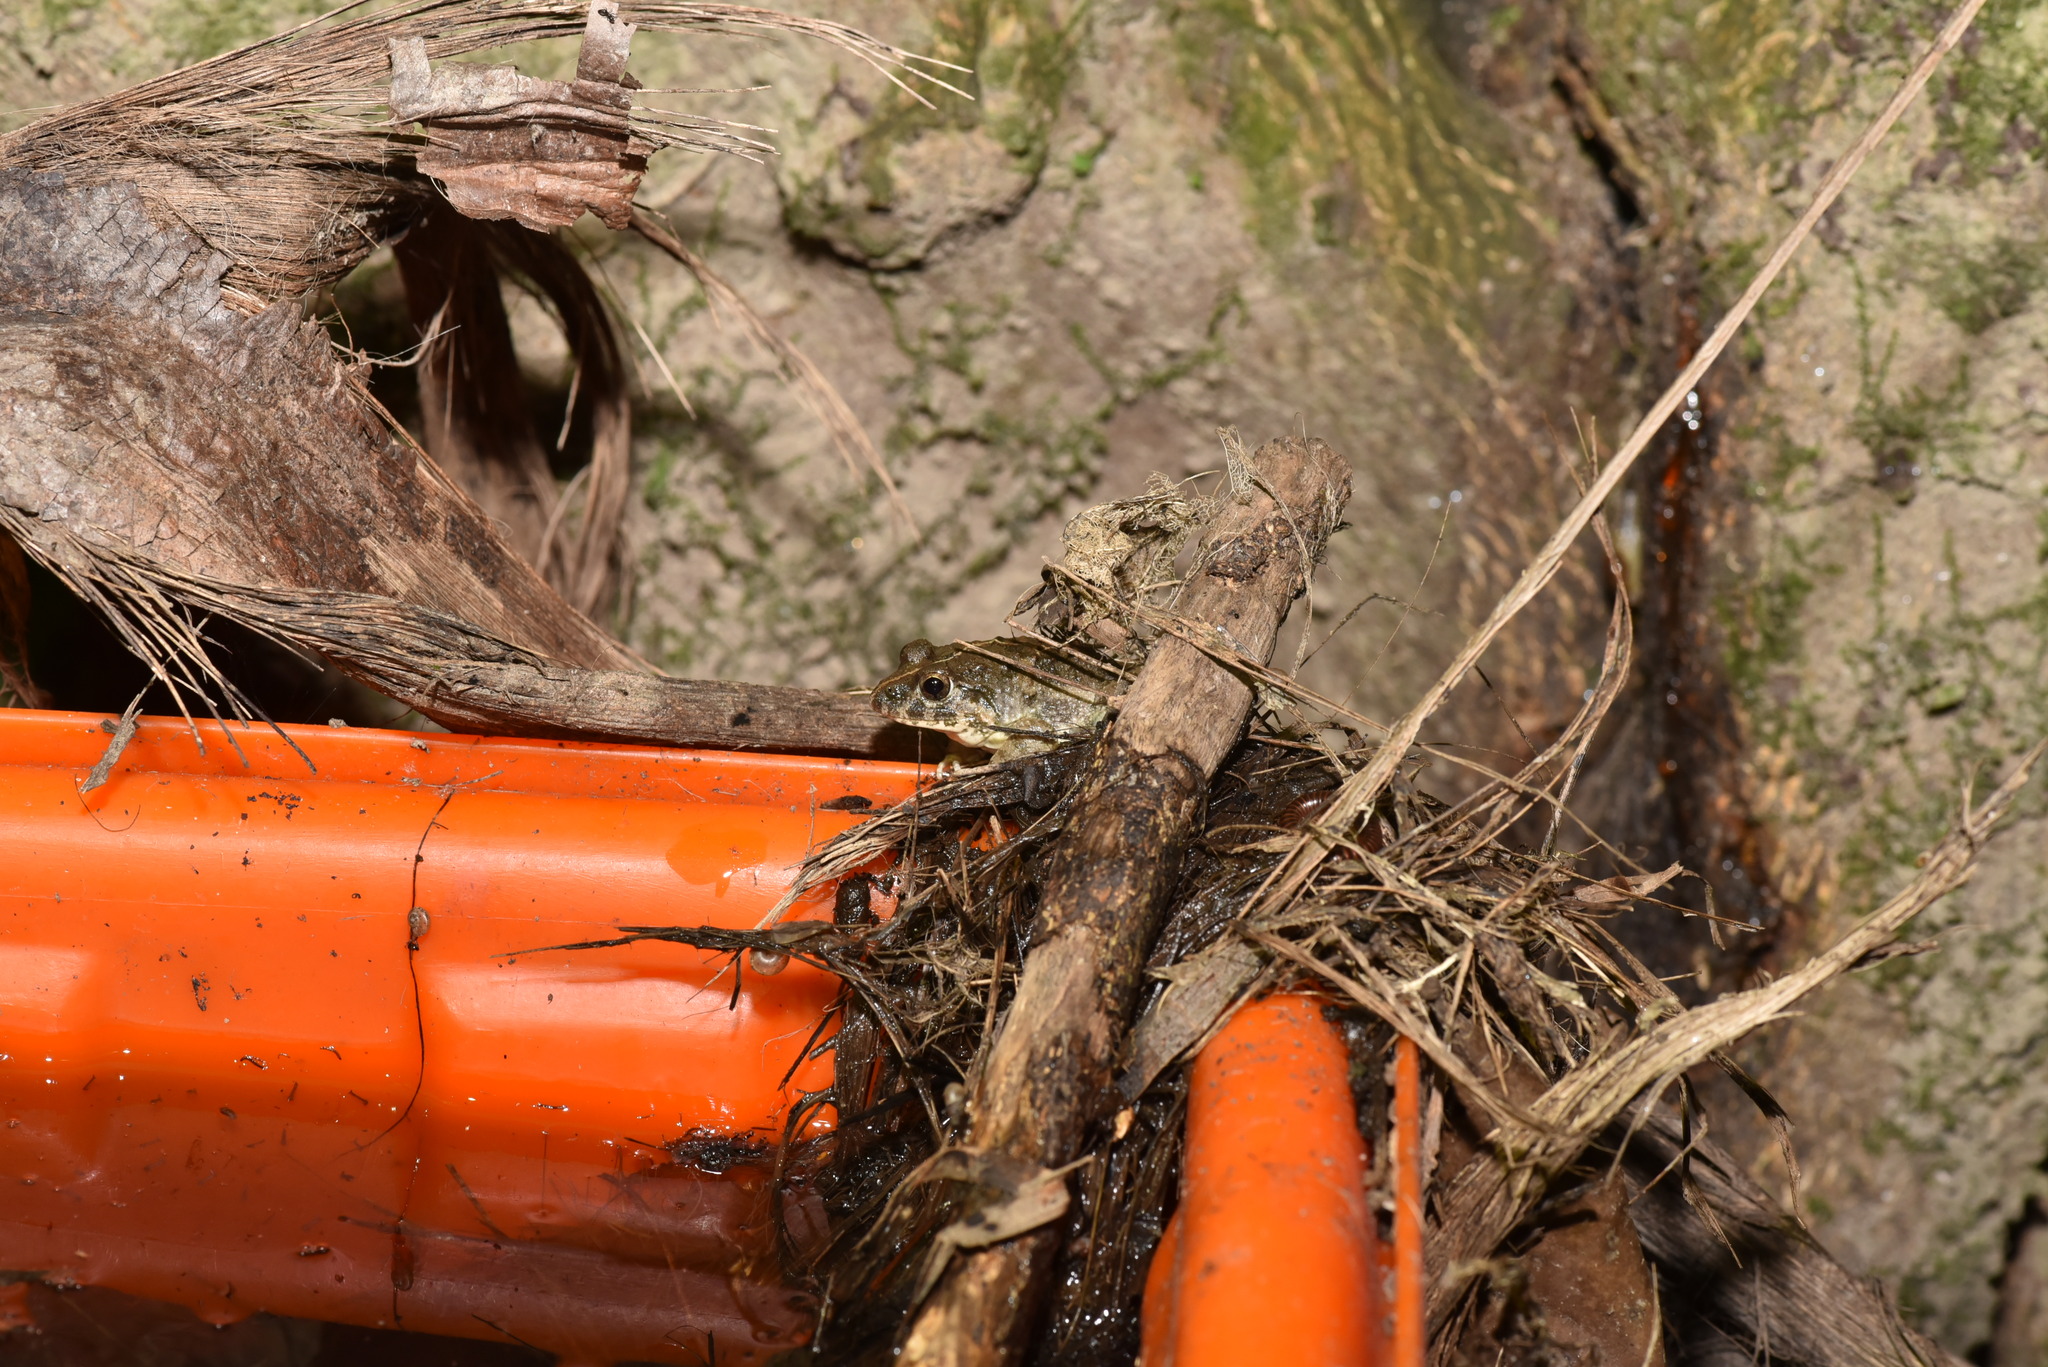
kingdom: Animalia
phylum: Chordata
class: Amphibia
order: Anura
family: Dicroglossidae
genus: Fejervarya
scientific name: Fejervarya limnocharis
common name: Asian grass frog/common pond frog/field frog/grass frog/indian rice frog
